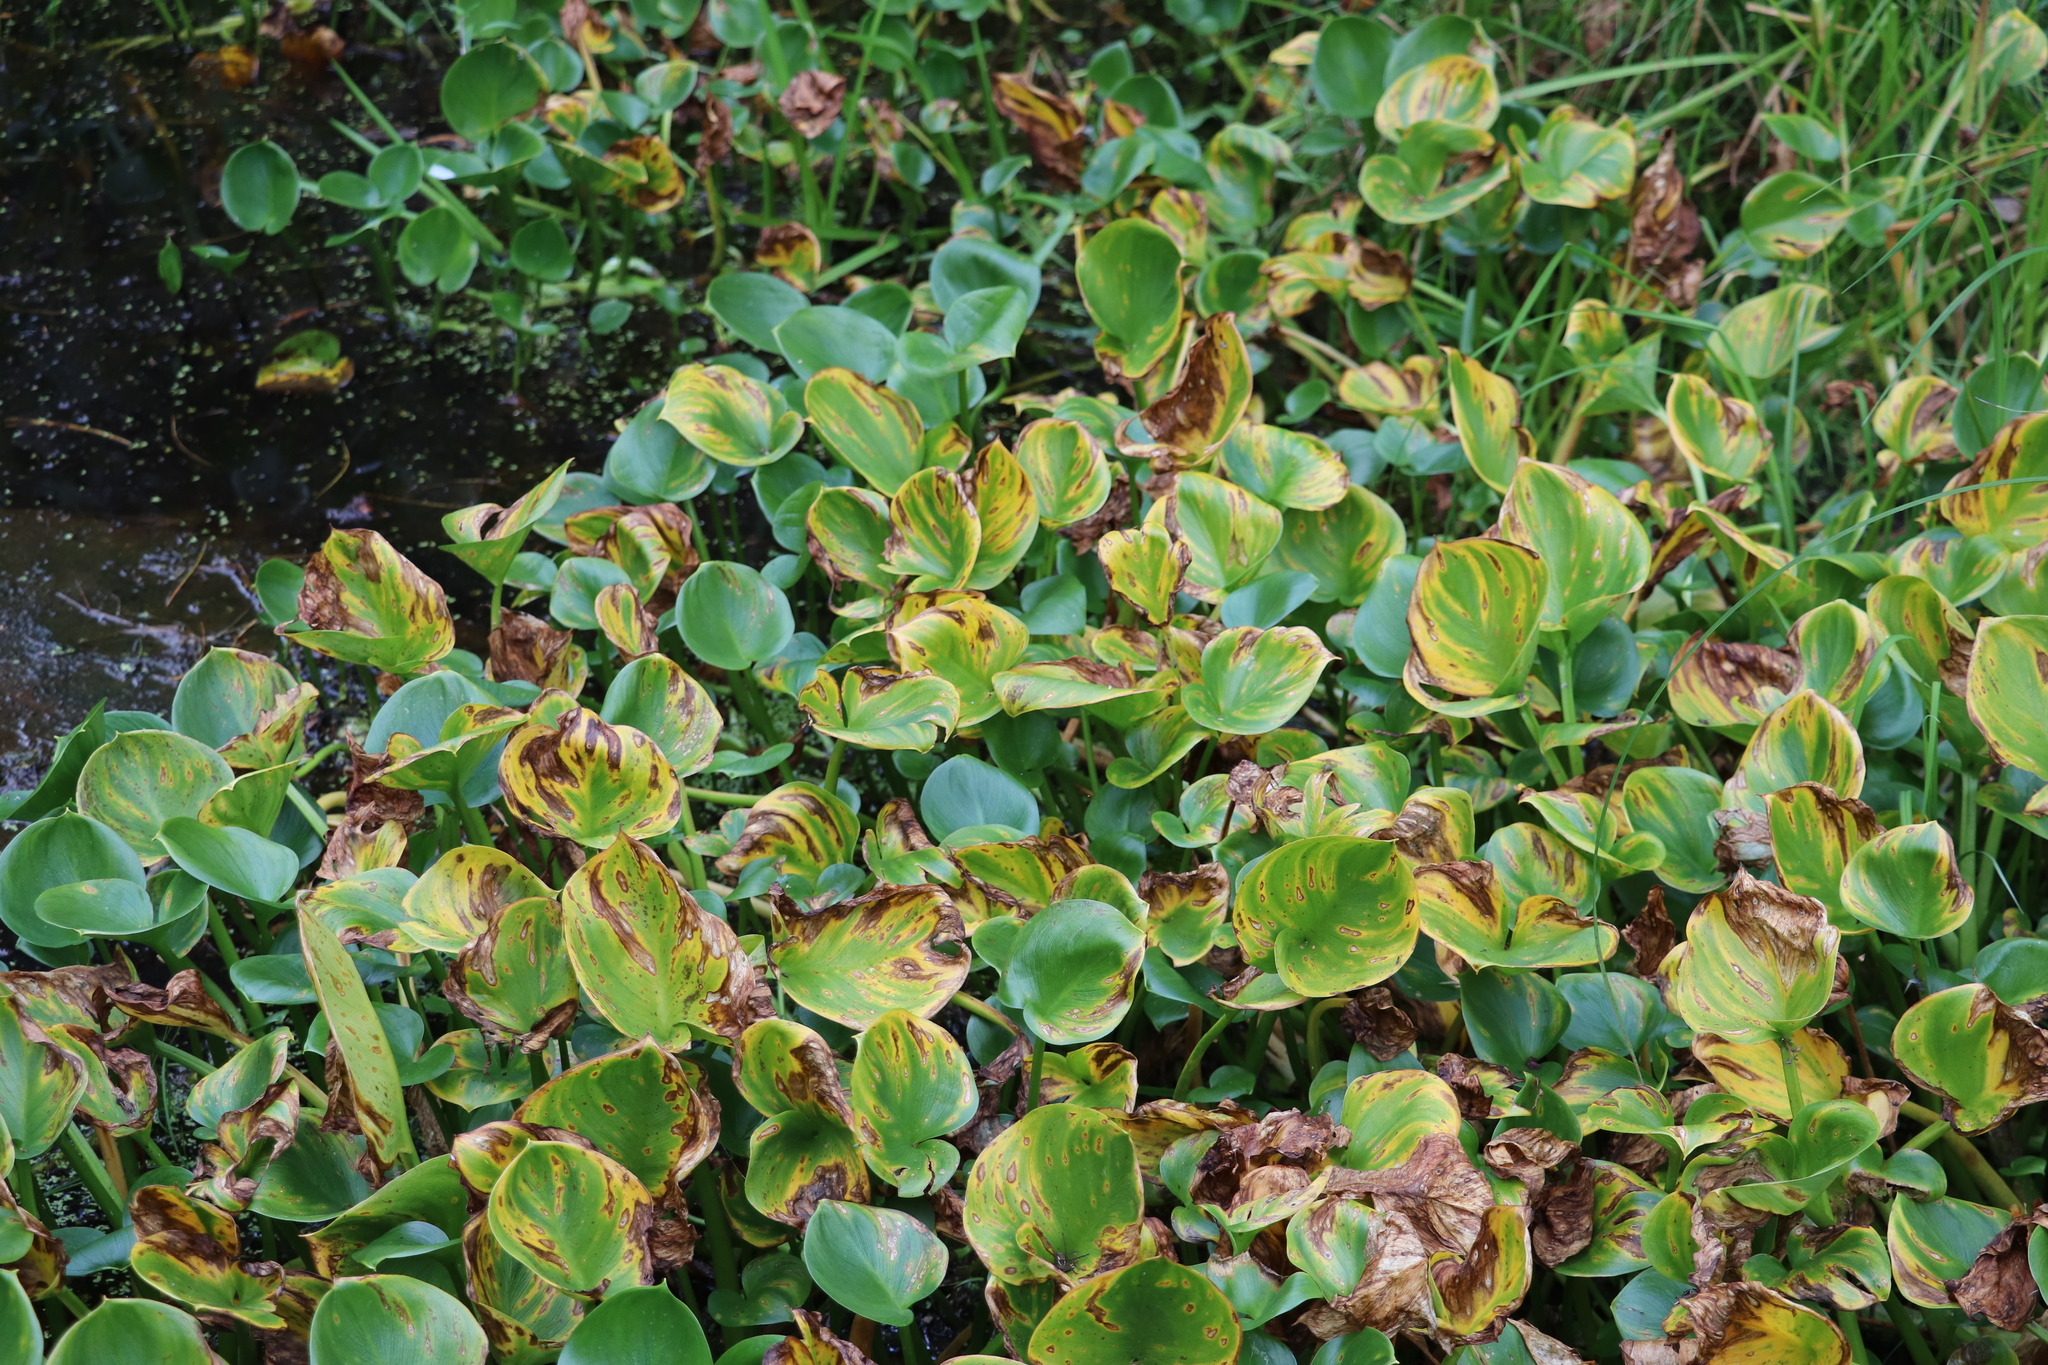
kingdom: Plantae
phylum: Tracheophyta
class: Liliopsida
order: Alismatales
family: Araceae
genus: Calla
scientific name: Calla palustris
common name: Bog arum
